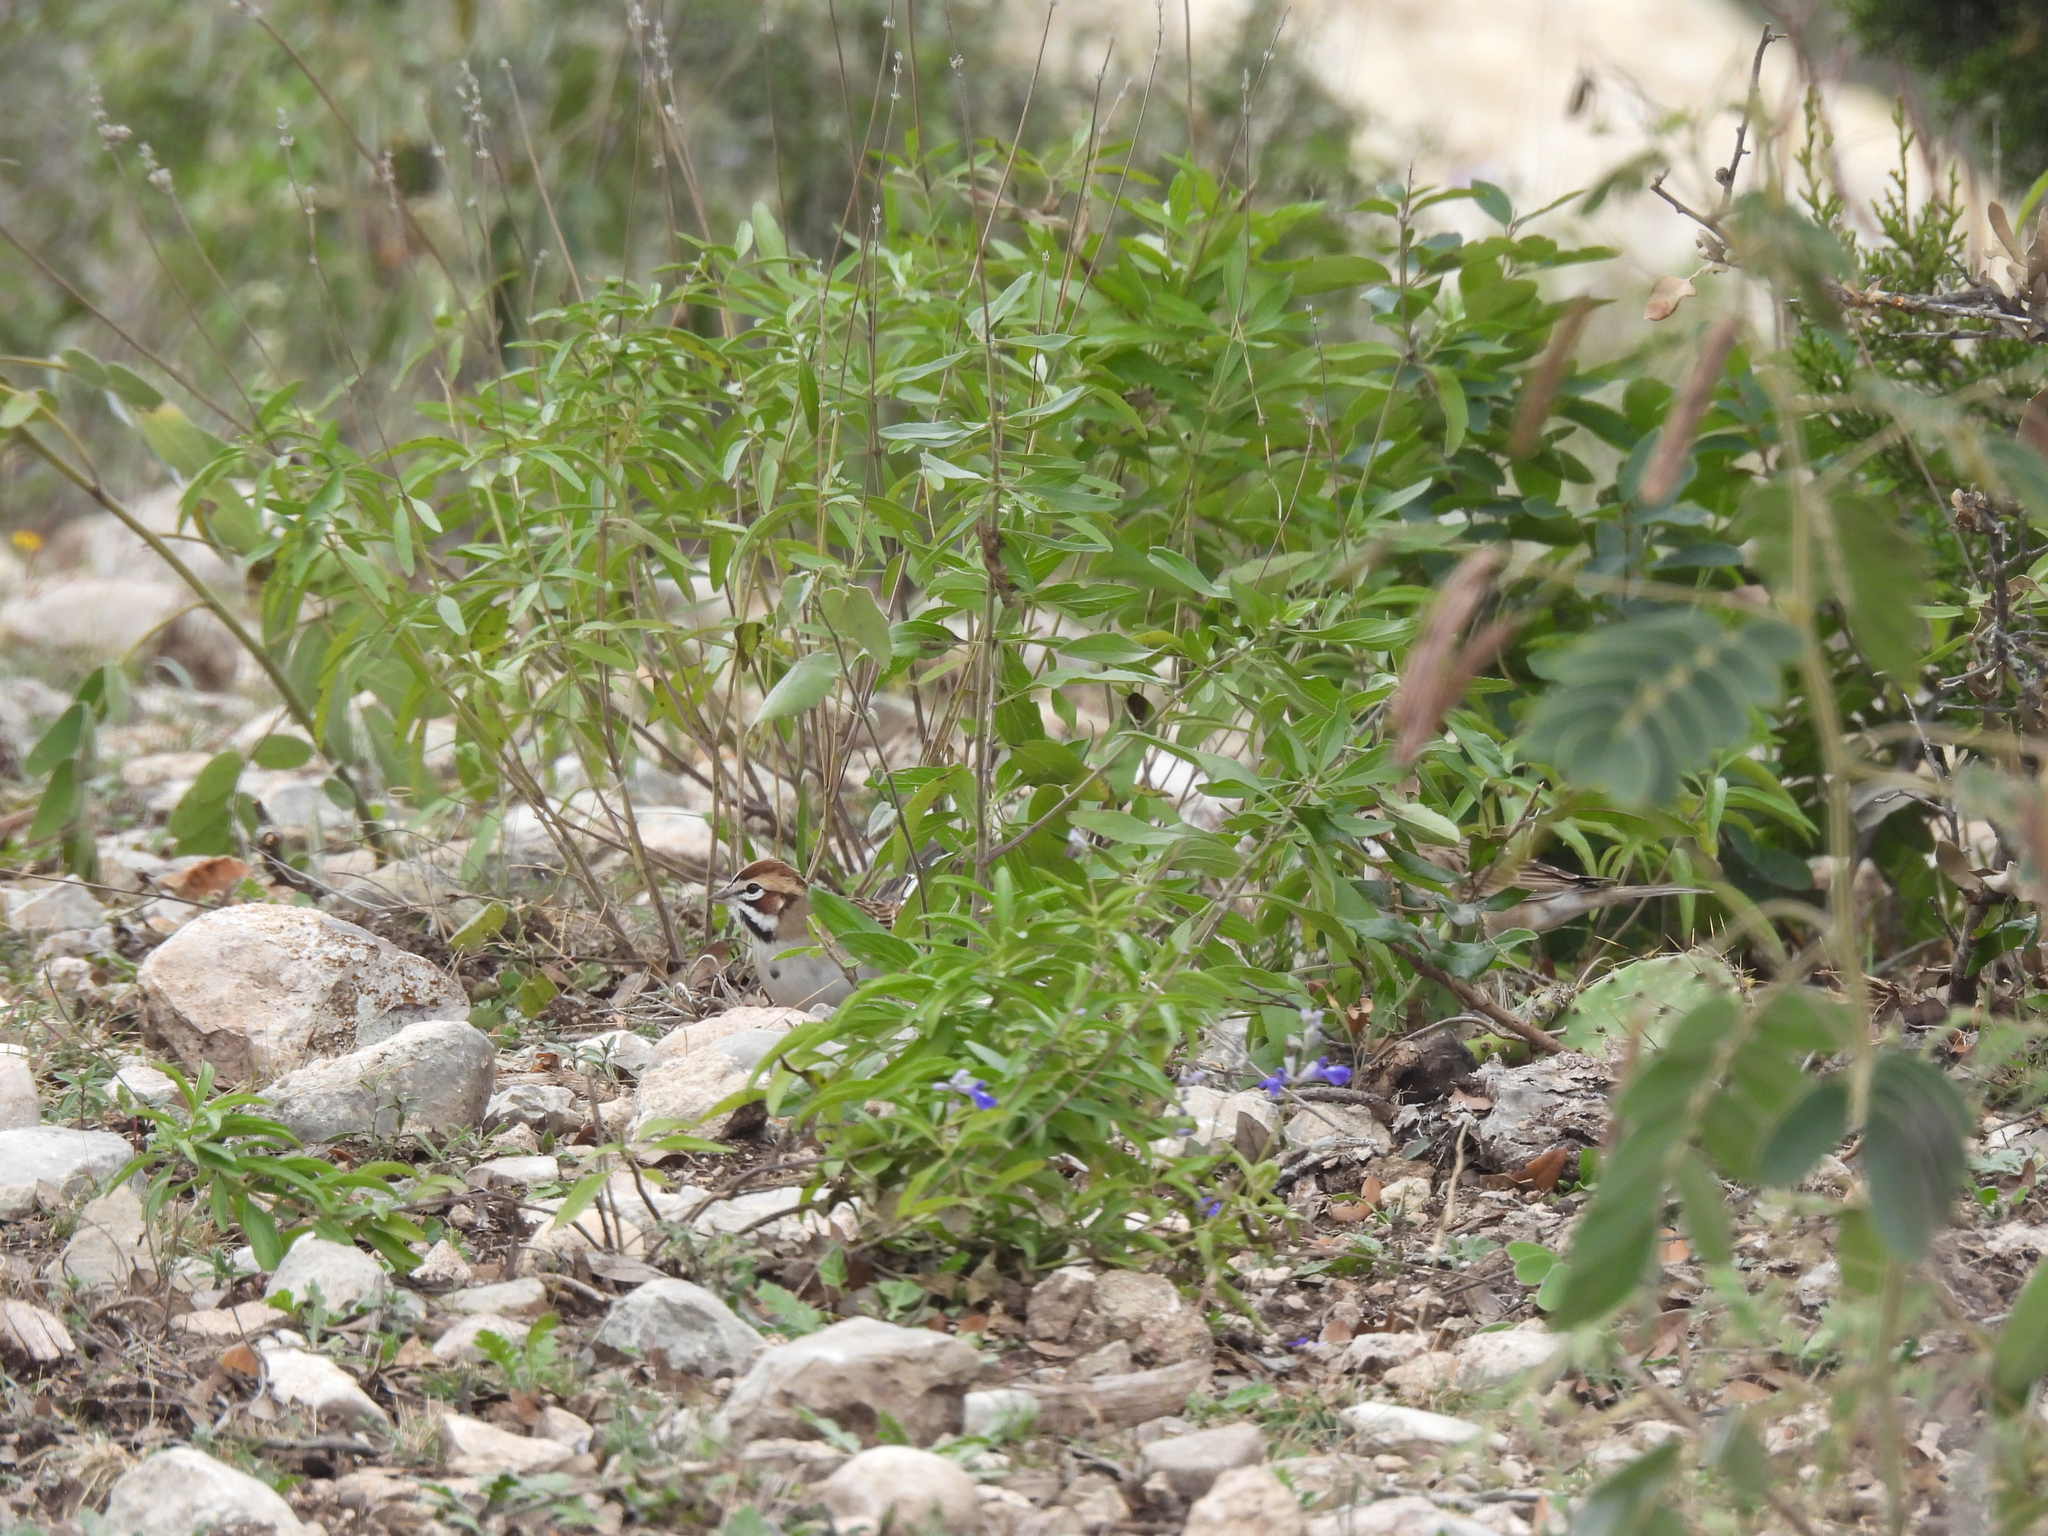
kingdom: Animalia
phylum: Chordata
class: Aves
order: Passeriformes
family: Passerellidae
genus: Chondestes
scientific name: Chondestes grammacus
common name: Lark sparrow
